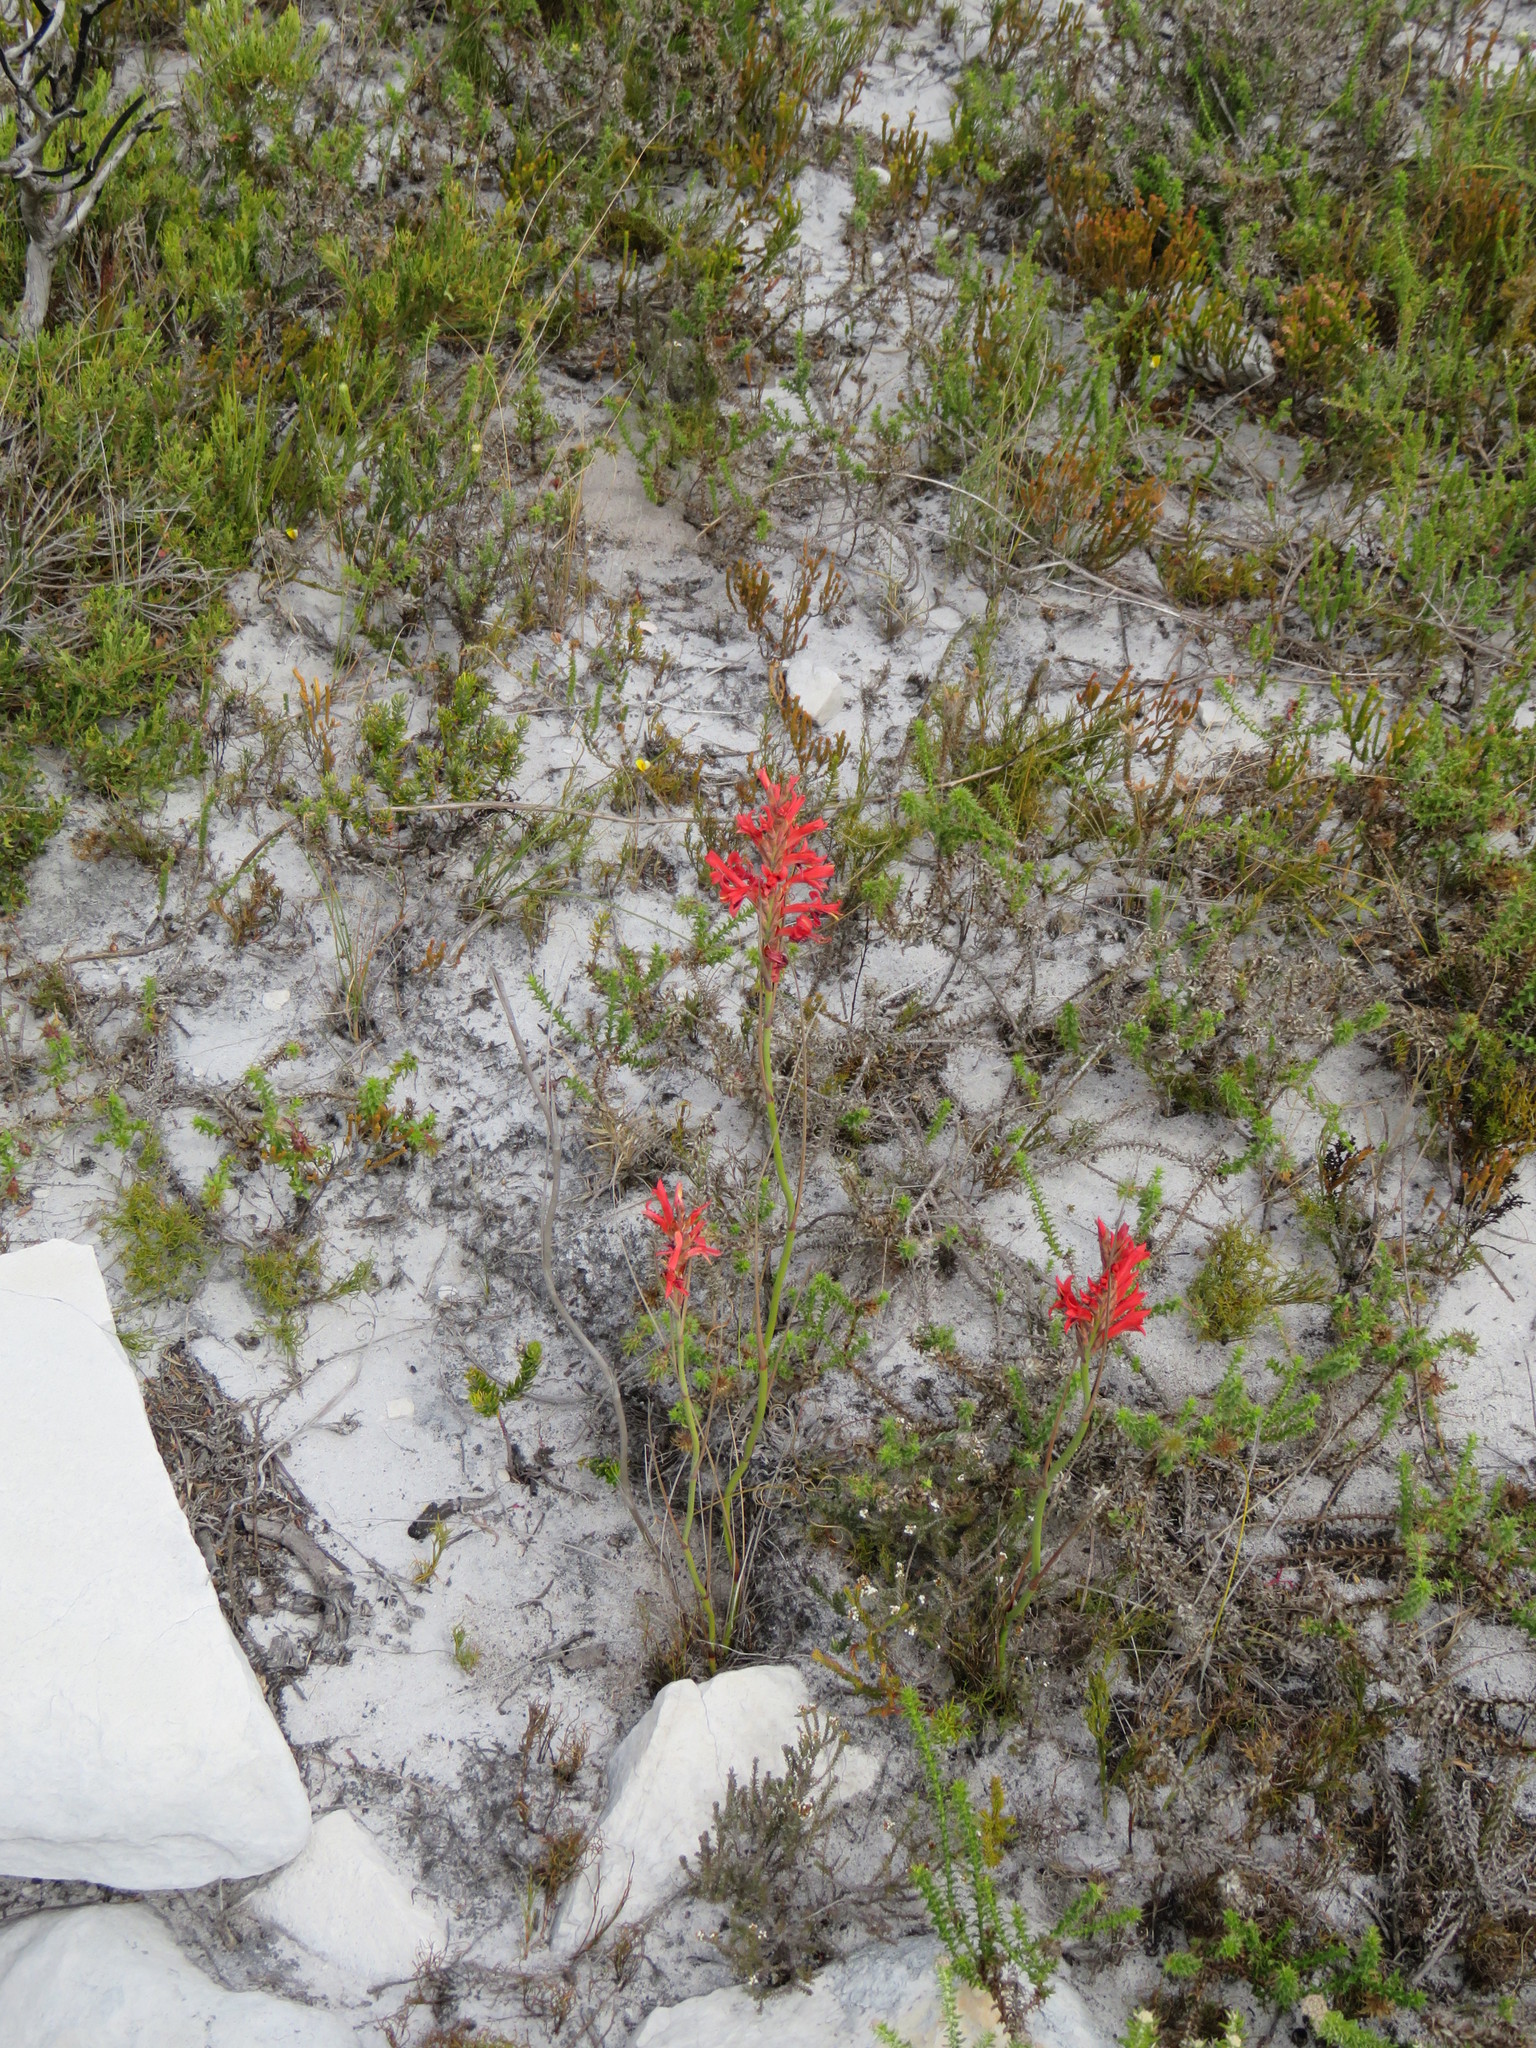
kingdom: Plantae
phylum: Tracheophyta
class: Liliopsida
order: Asparagales
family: Iridaceae
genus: Tritoniopsis
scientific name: Tritoniopsis triticea
